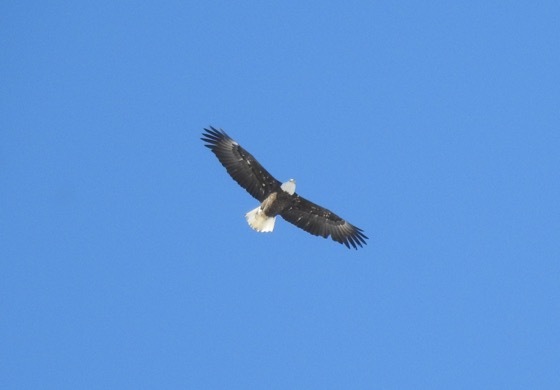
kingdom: Animalia
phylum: Chordata
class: Aves
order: Accipitriformes
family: Accipitridae
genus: Haliaeetus
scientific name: Haliaeetus leucocephalus
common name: Bald eagle
